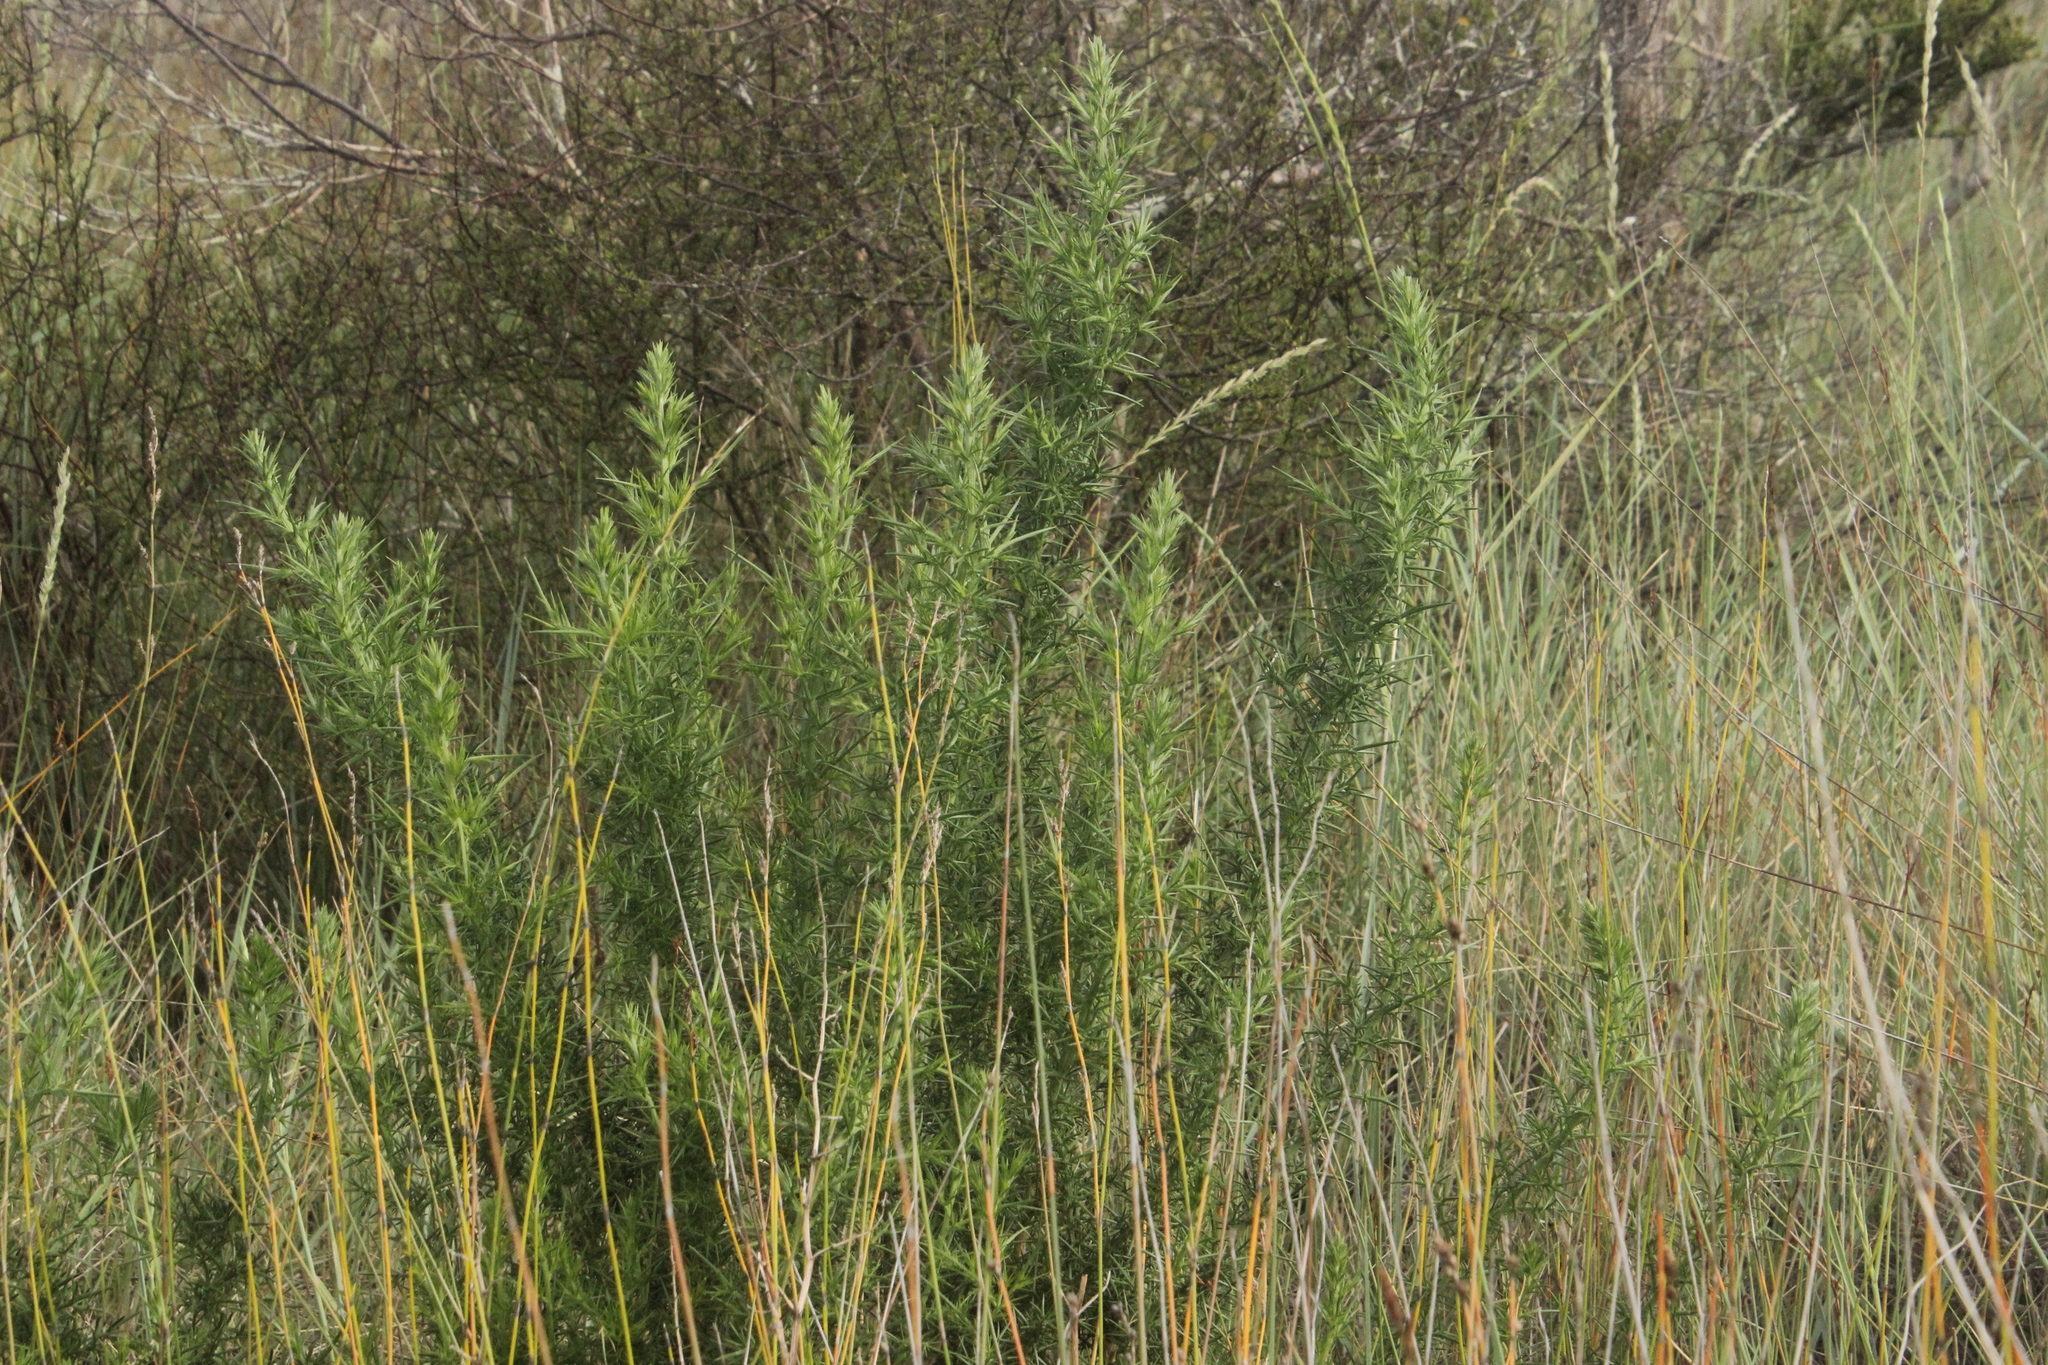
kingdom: Plantae
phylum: Tracheophyta
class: Magnoliopsida
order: Fabales
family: Fabaceae
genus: Ulex
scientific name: Ulex europaeus
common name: Common gorse
